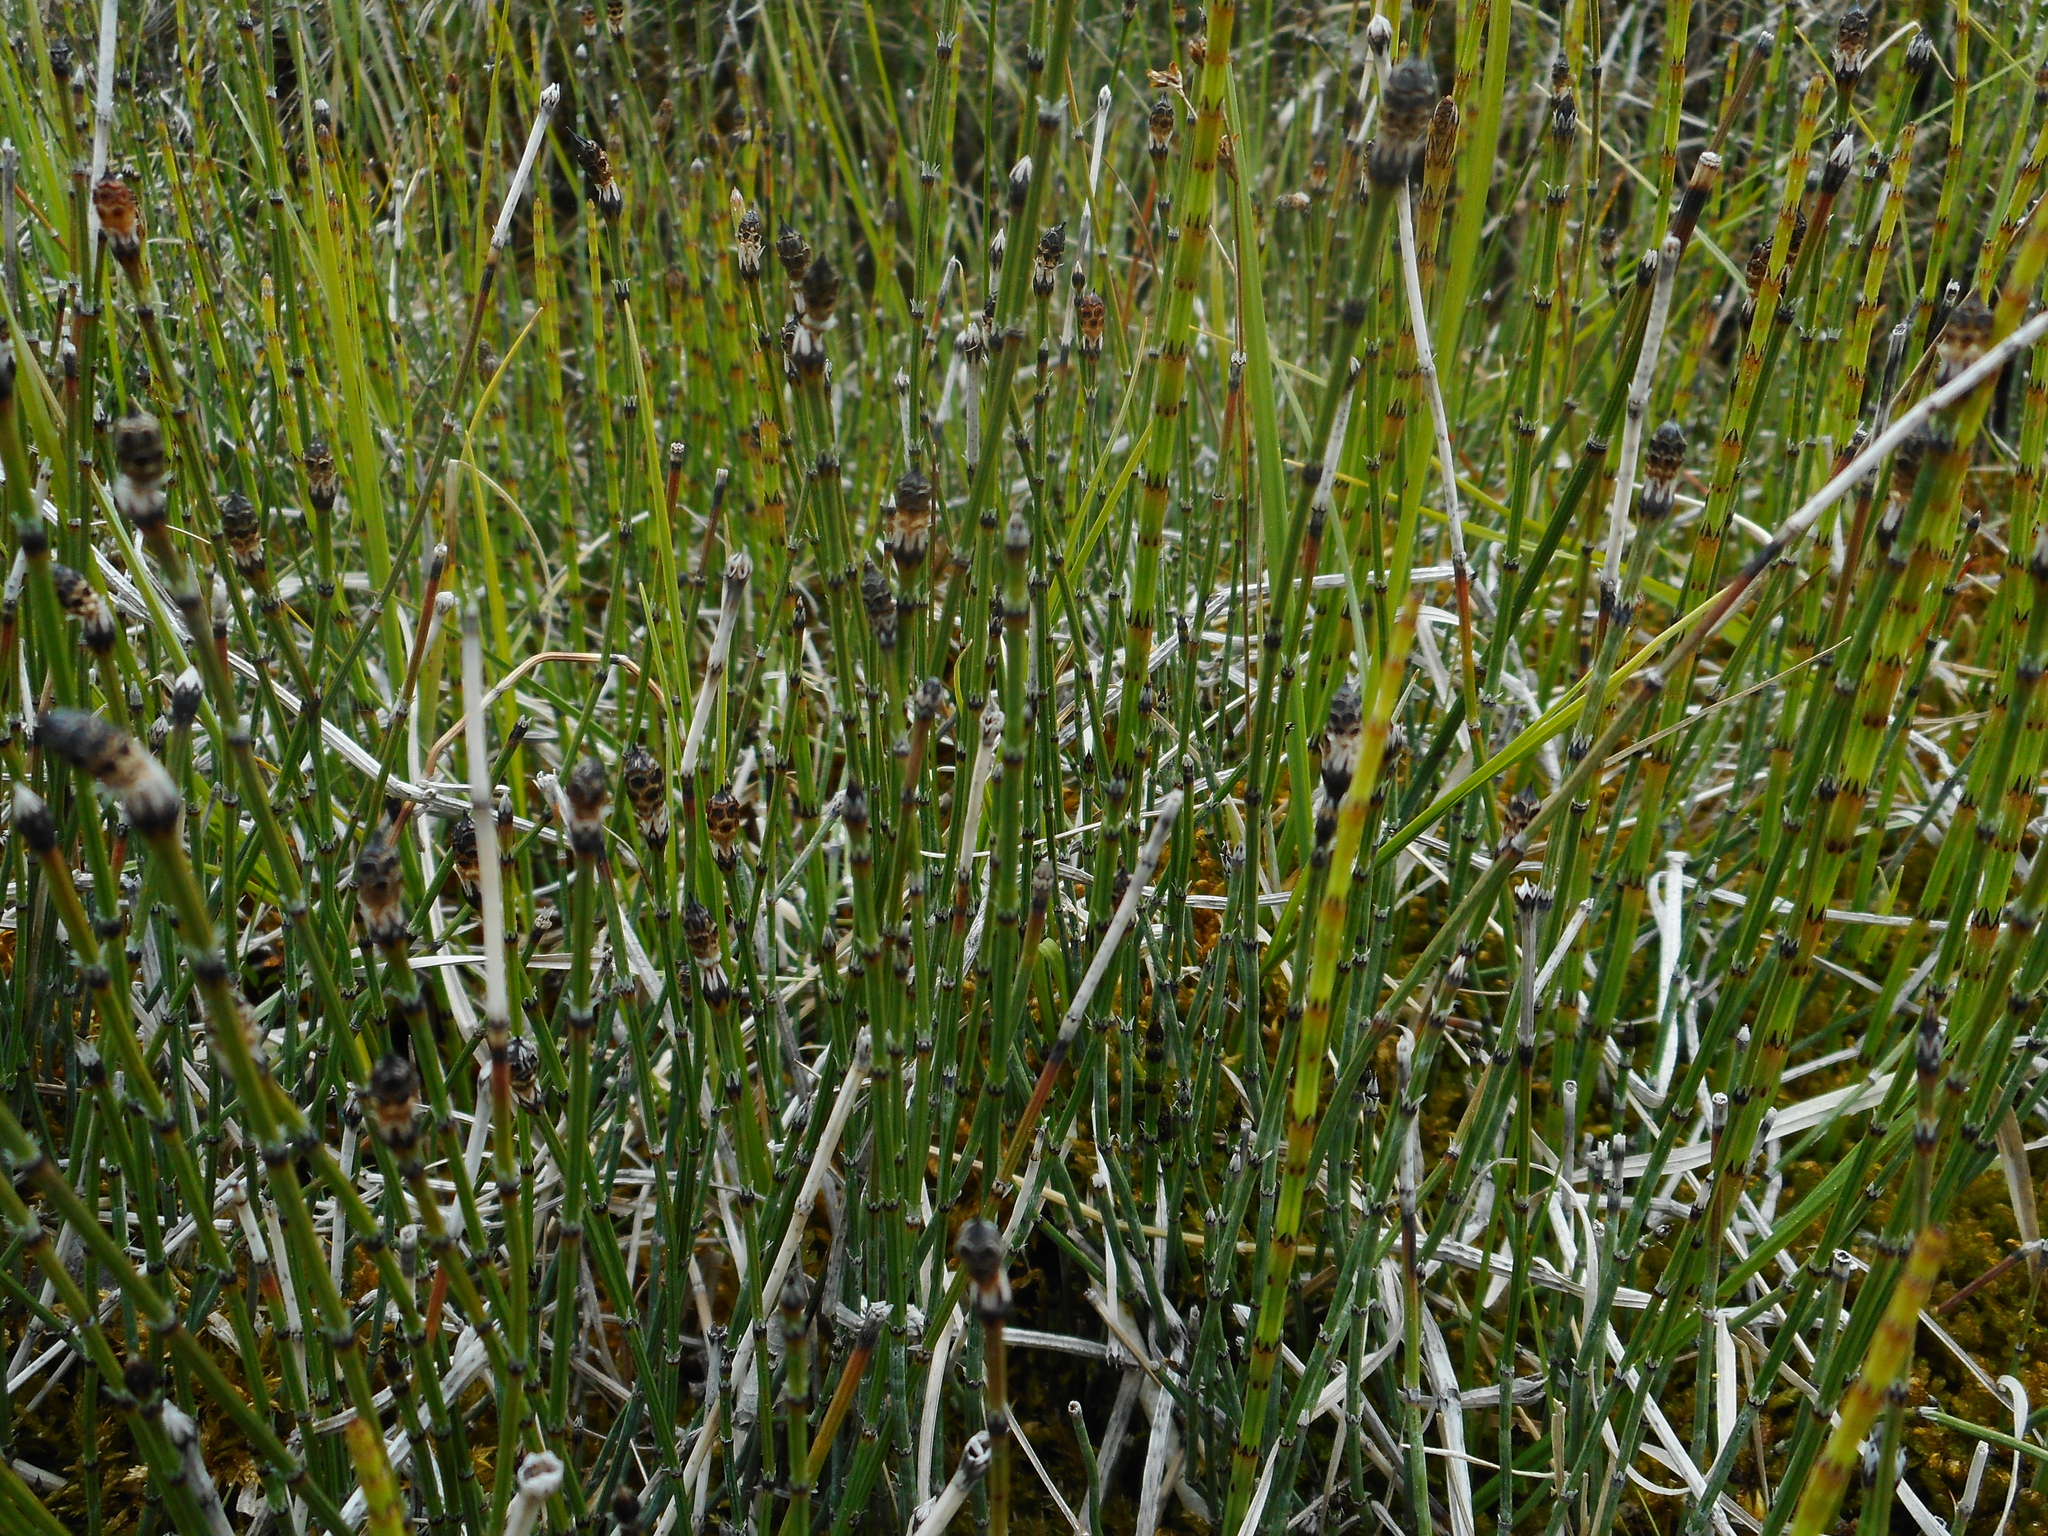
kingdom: Plantae
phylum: Tracheophyta
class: Polypodiopsida
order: Equisetales
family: Equisetaceae
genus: Equisetum
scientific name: Equisetum variegatum
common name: Variegated horsetail
